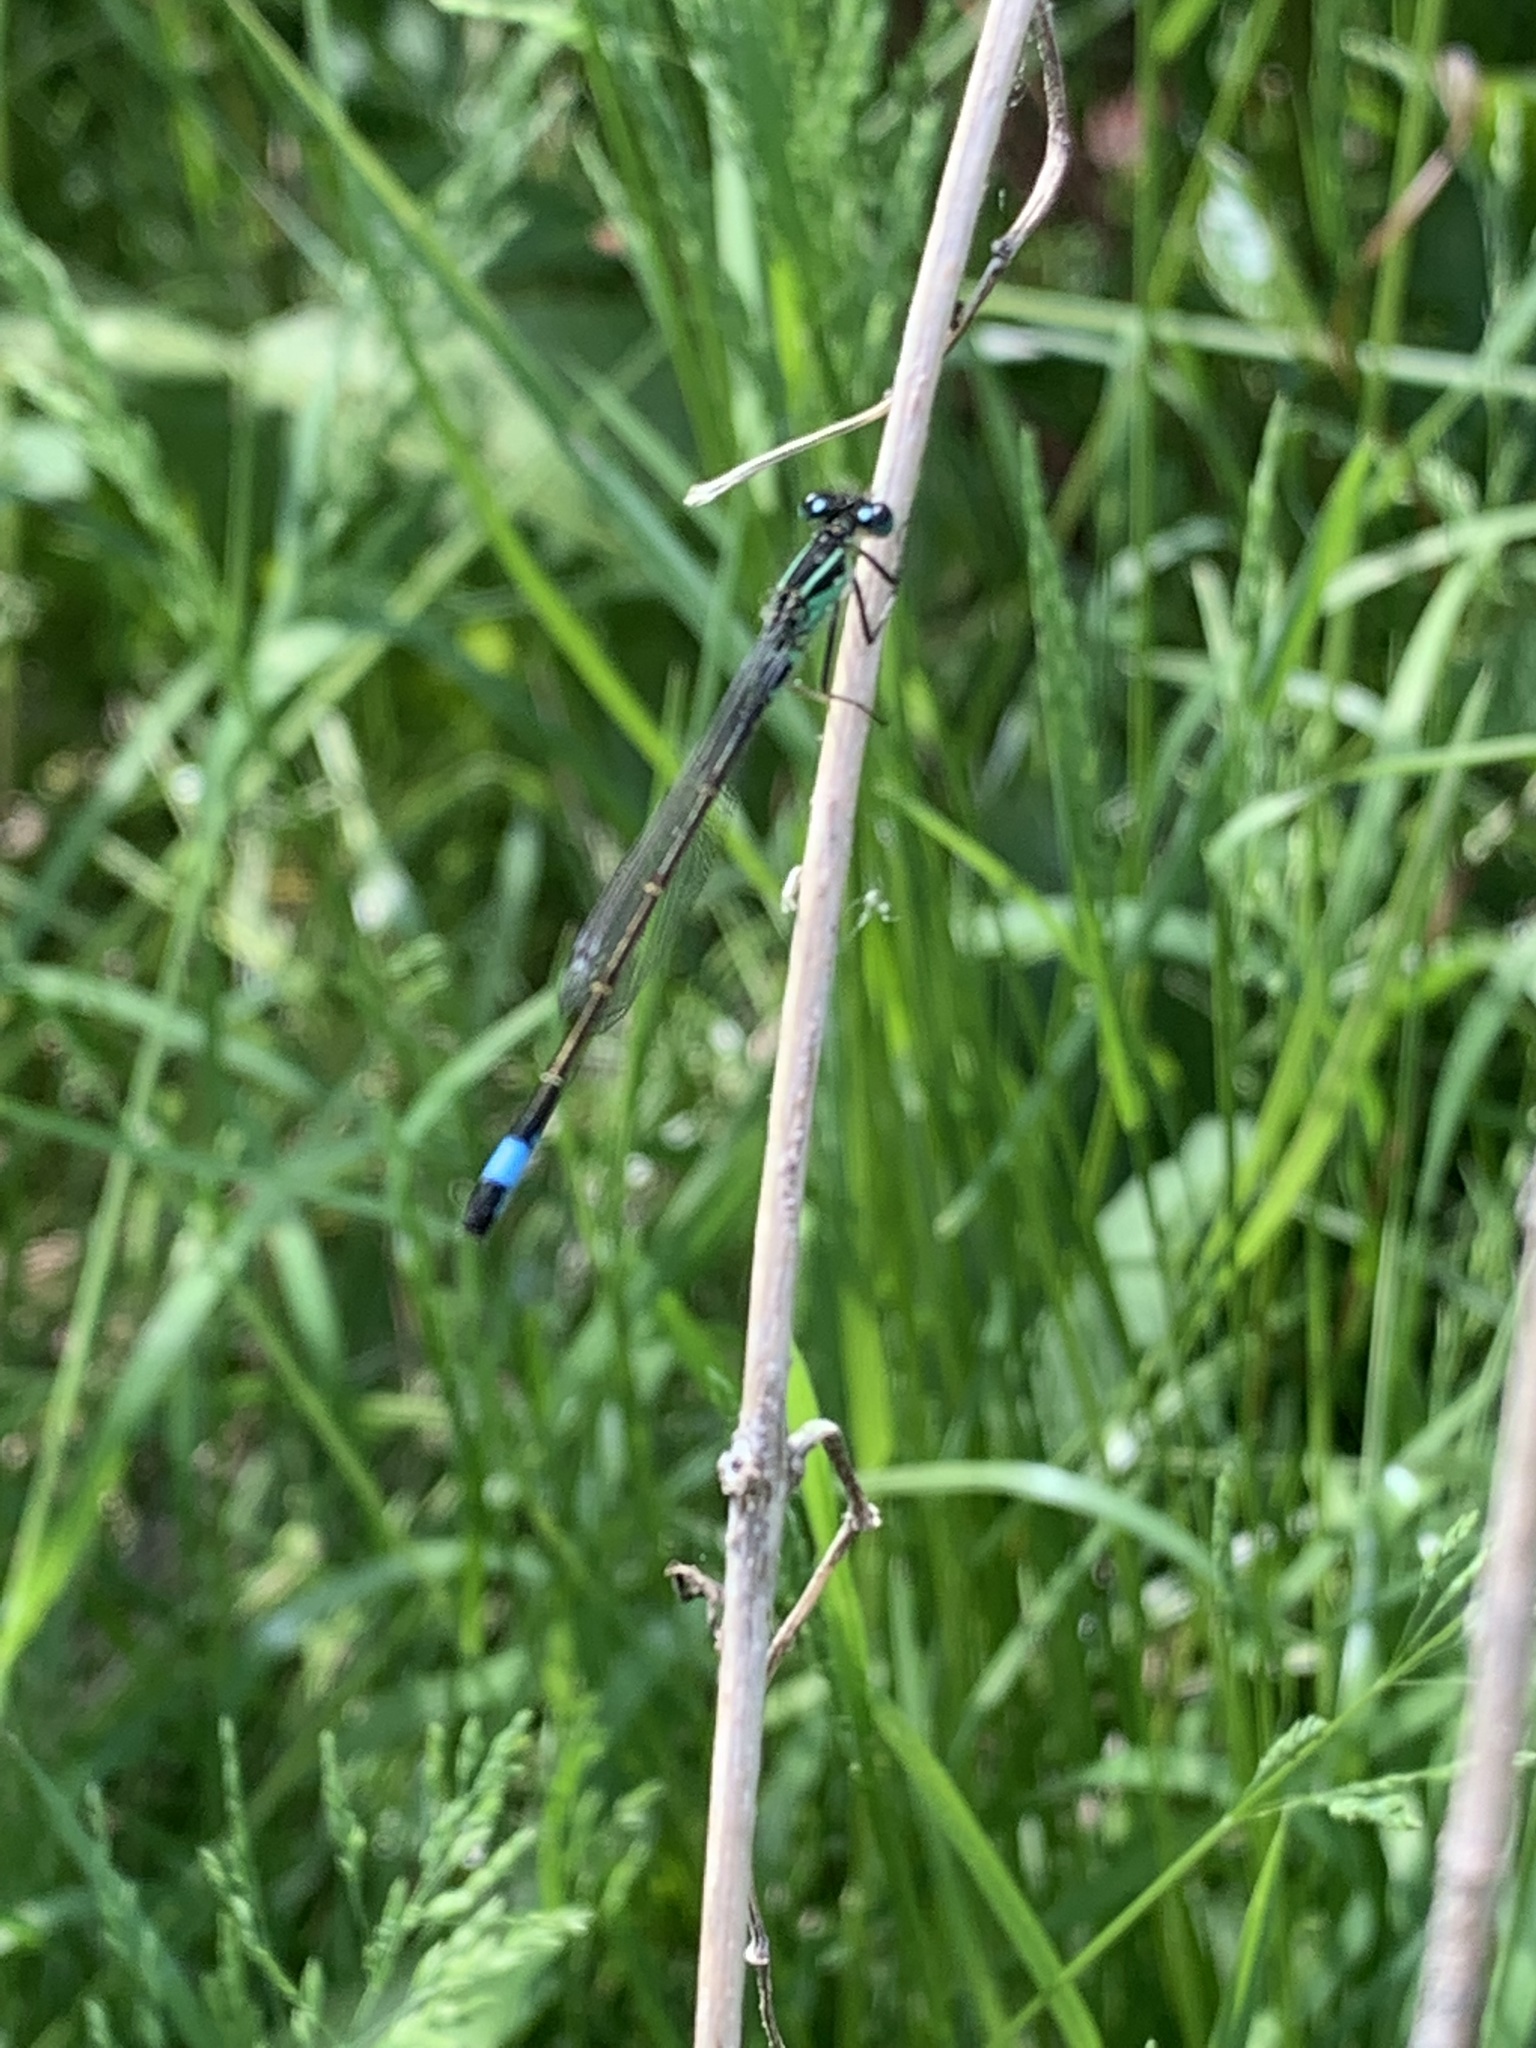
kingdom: Animalia
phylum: Arthropoda
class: Insecta
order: Odonata
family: Coenagrionidae
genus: Ischnura
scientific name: Ischnura elegans
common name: Blue-tailed damselfly
